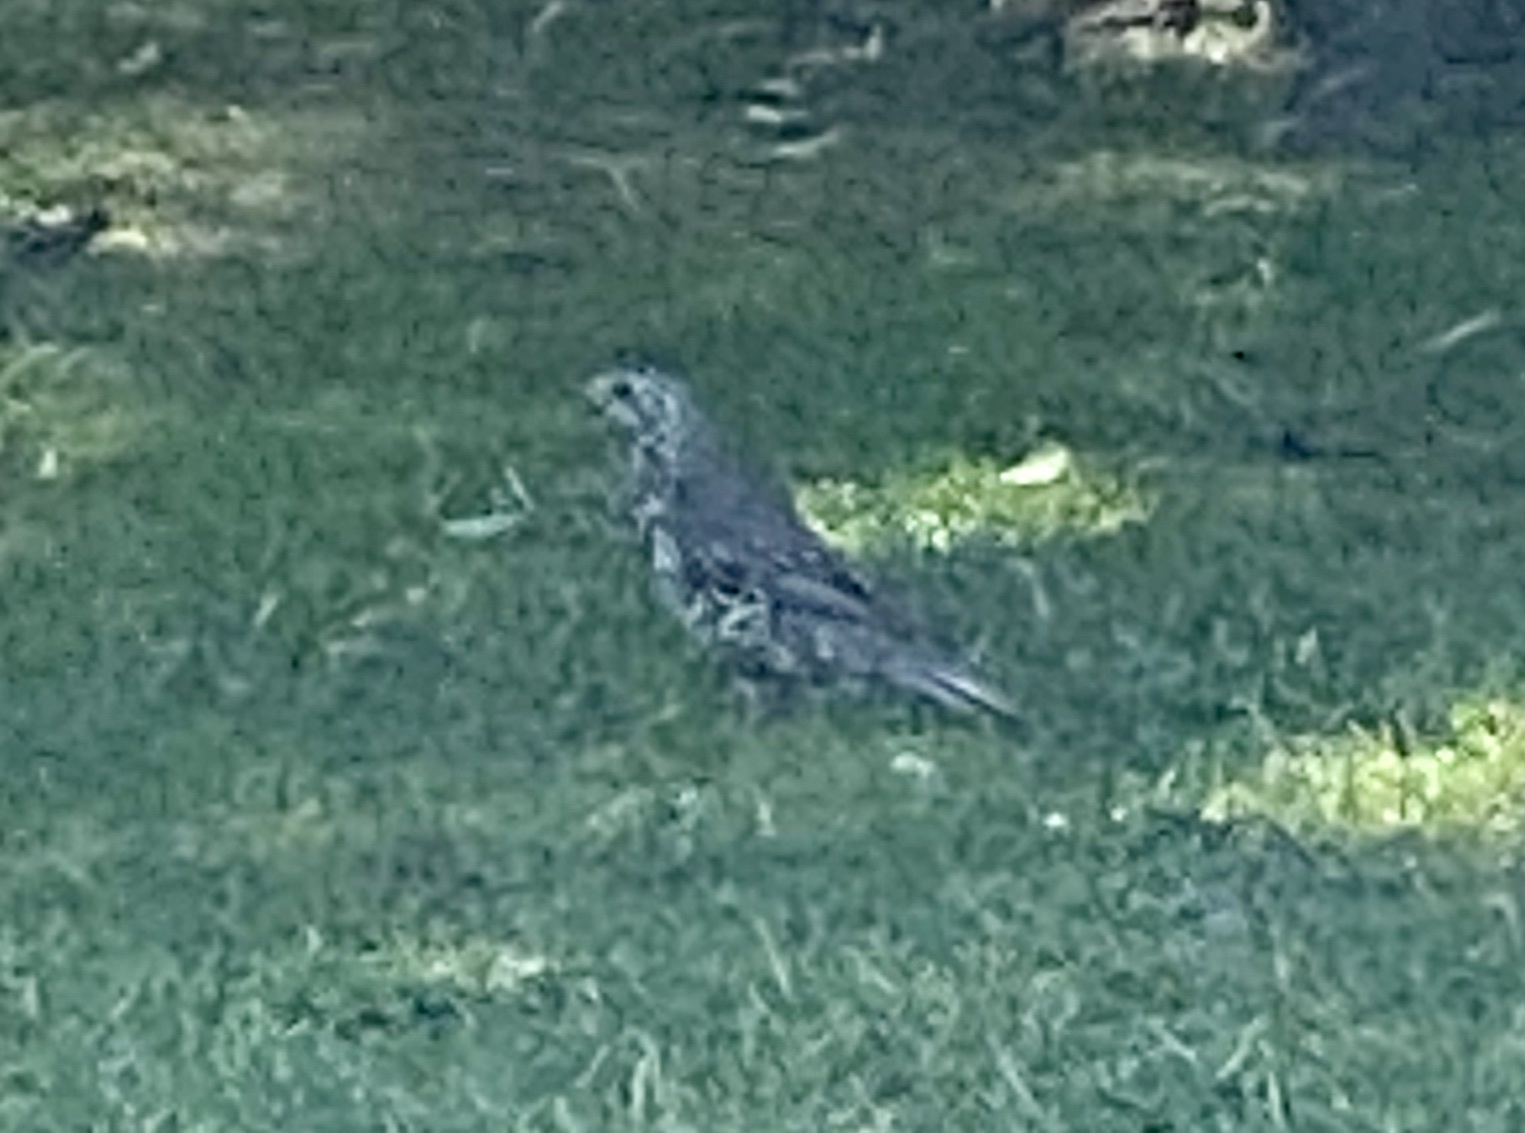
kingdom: Animalia
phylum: Chordata
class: Aves
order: Passeriformes
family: Turdidae
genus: Turdus
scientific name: Turdus viscivorus
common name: Mistle thrush
